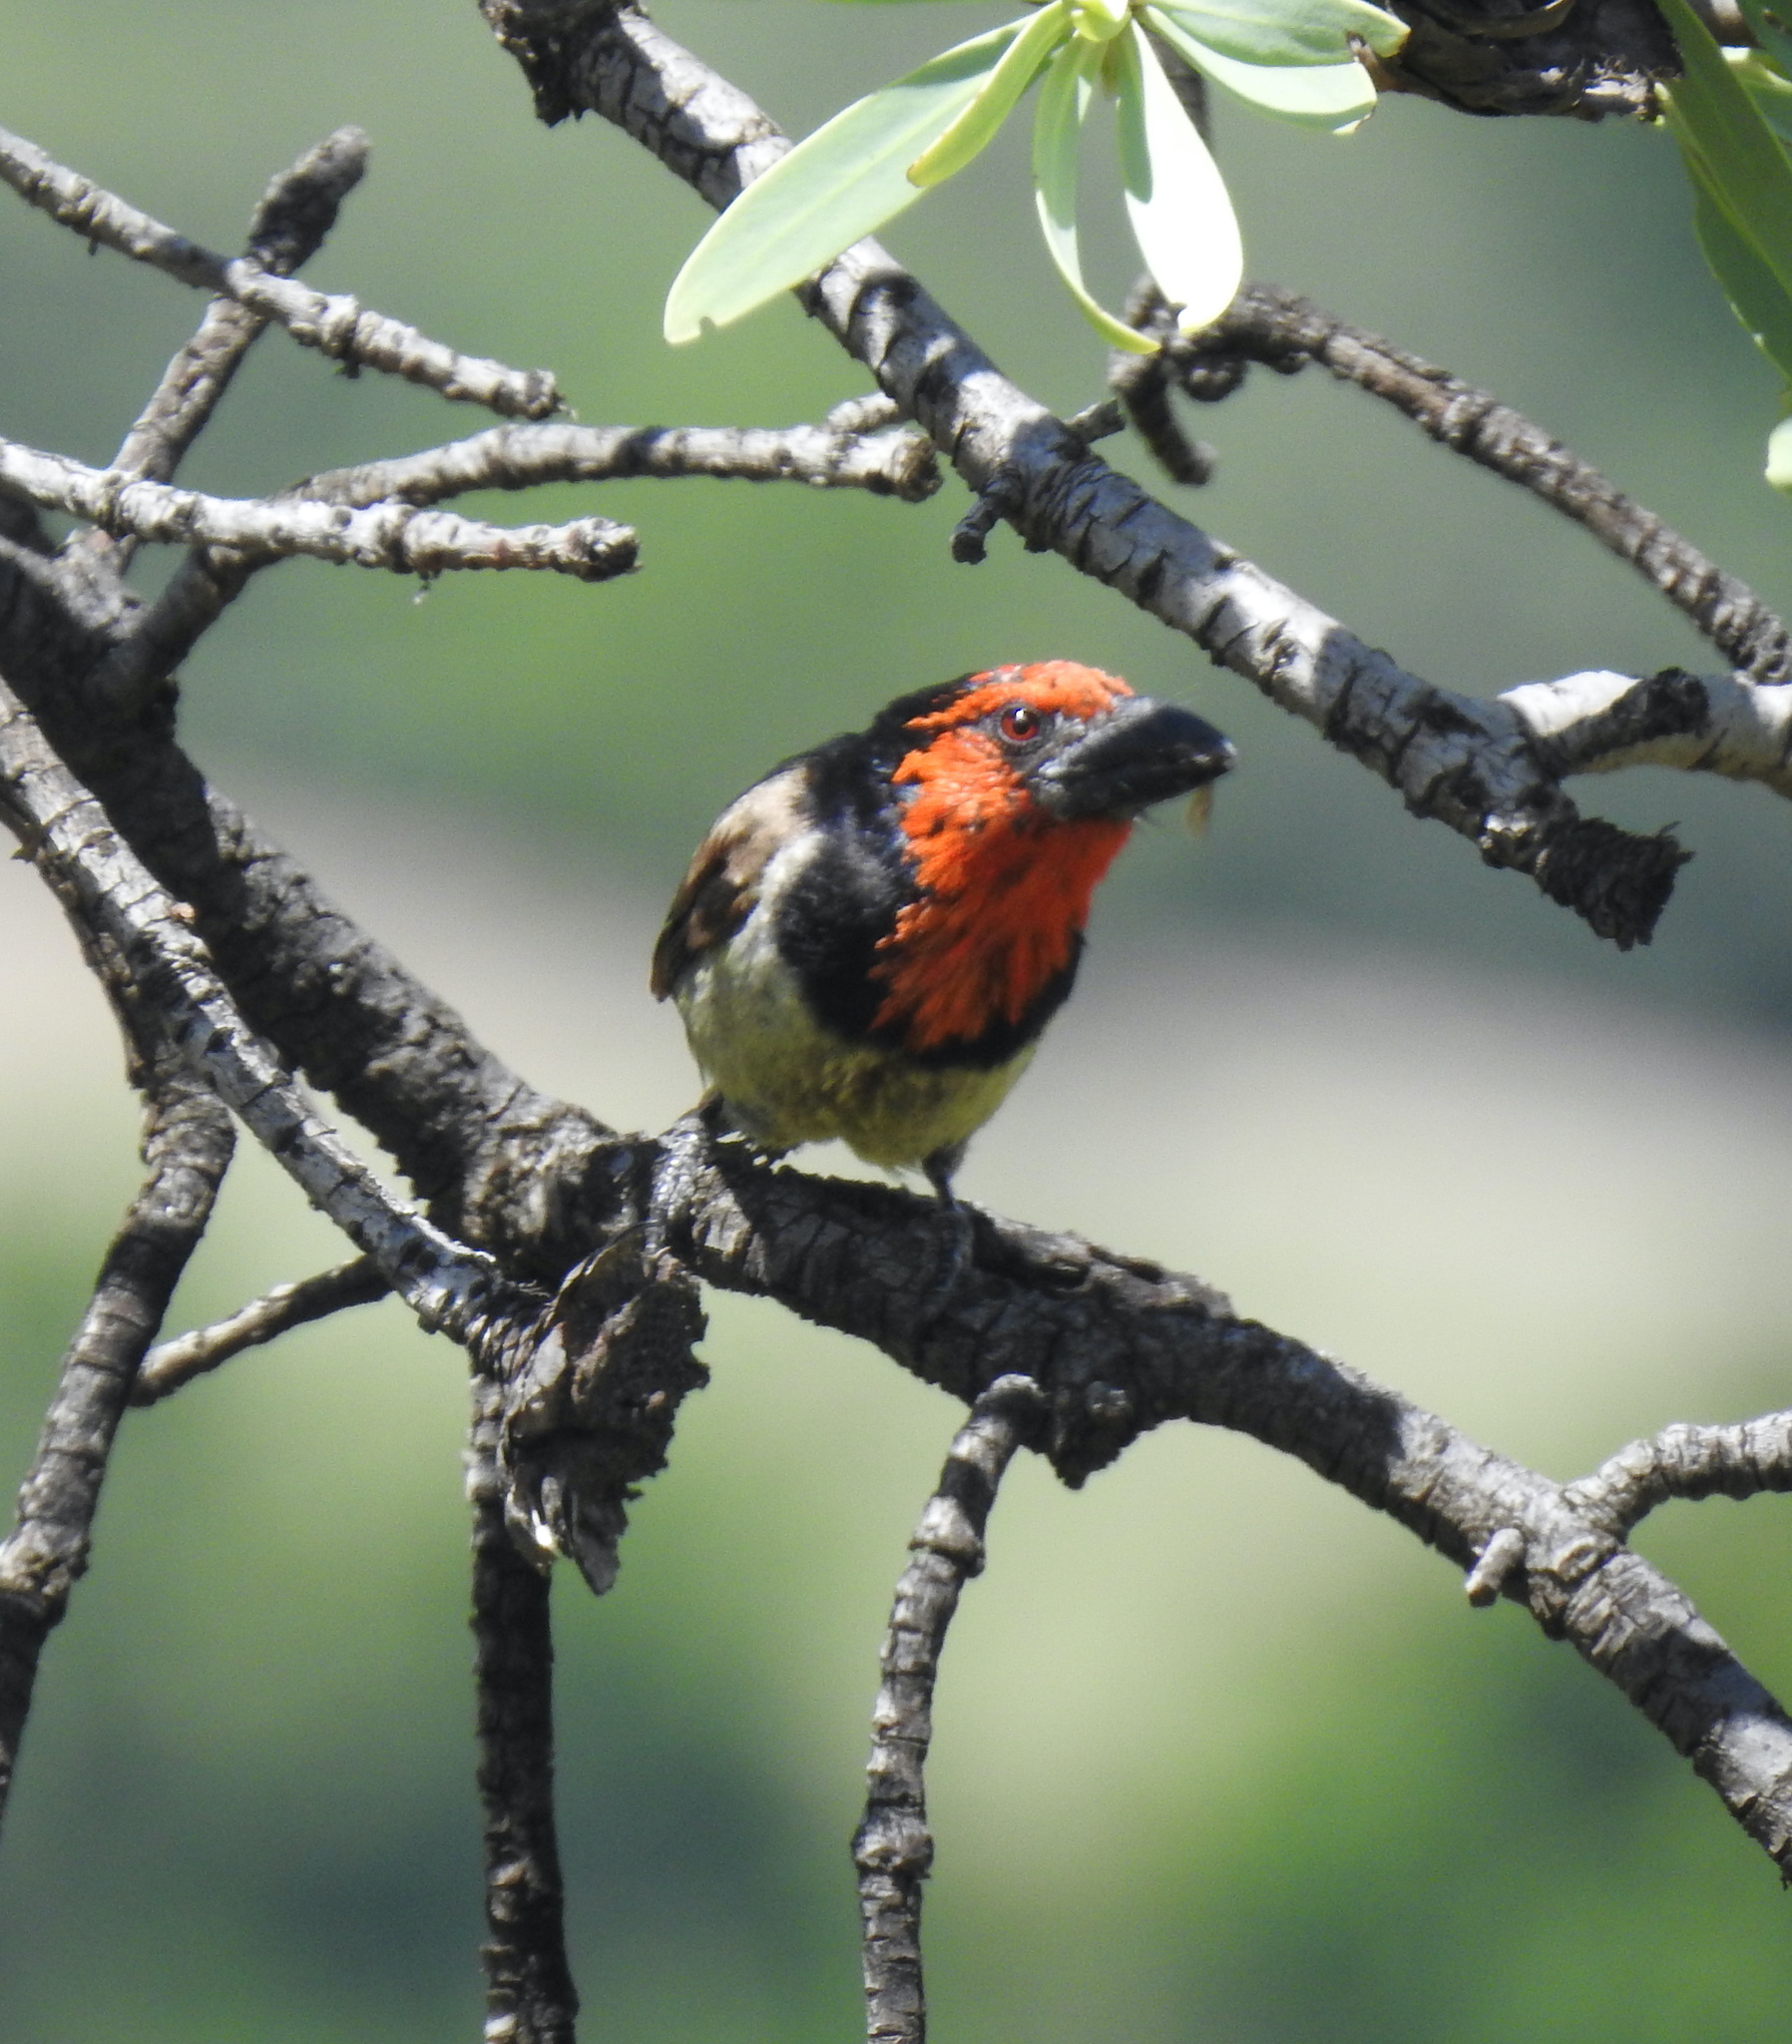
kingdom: Animalia
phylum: Chordata
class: Aves
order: Piciformes
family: Lybiidae
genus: Lybius
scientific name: Lybius torquatus
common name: Black-collared barbet
